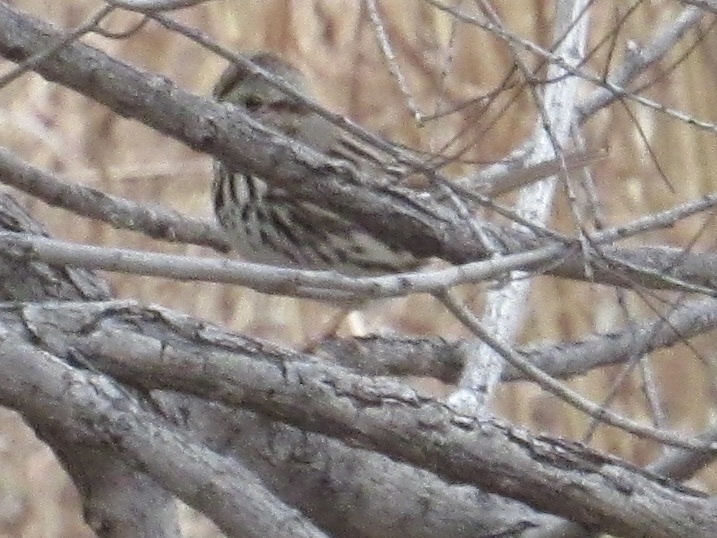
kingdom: Animalia
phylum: Chordata
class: Aves
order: Passeriformes
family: Passerellidae
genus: Melospiza
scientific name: Melospiza melodia
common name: Song sparrow
